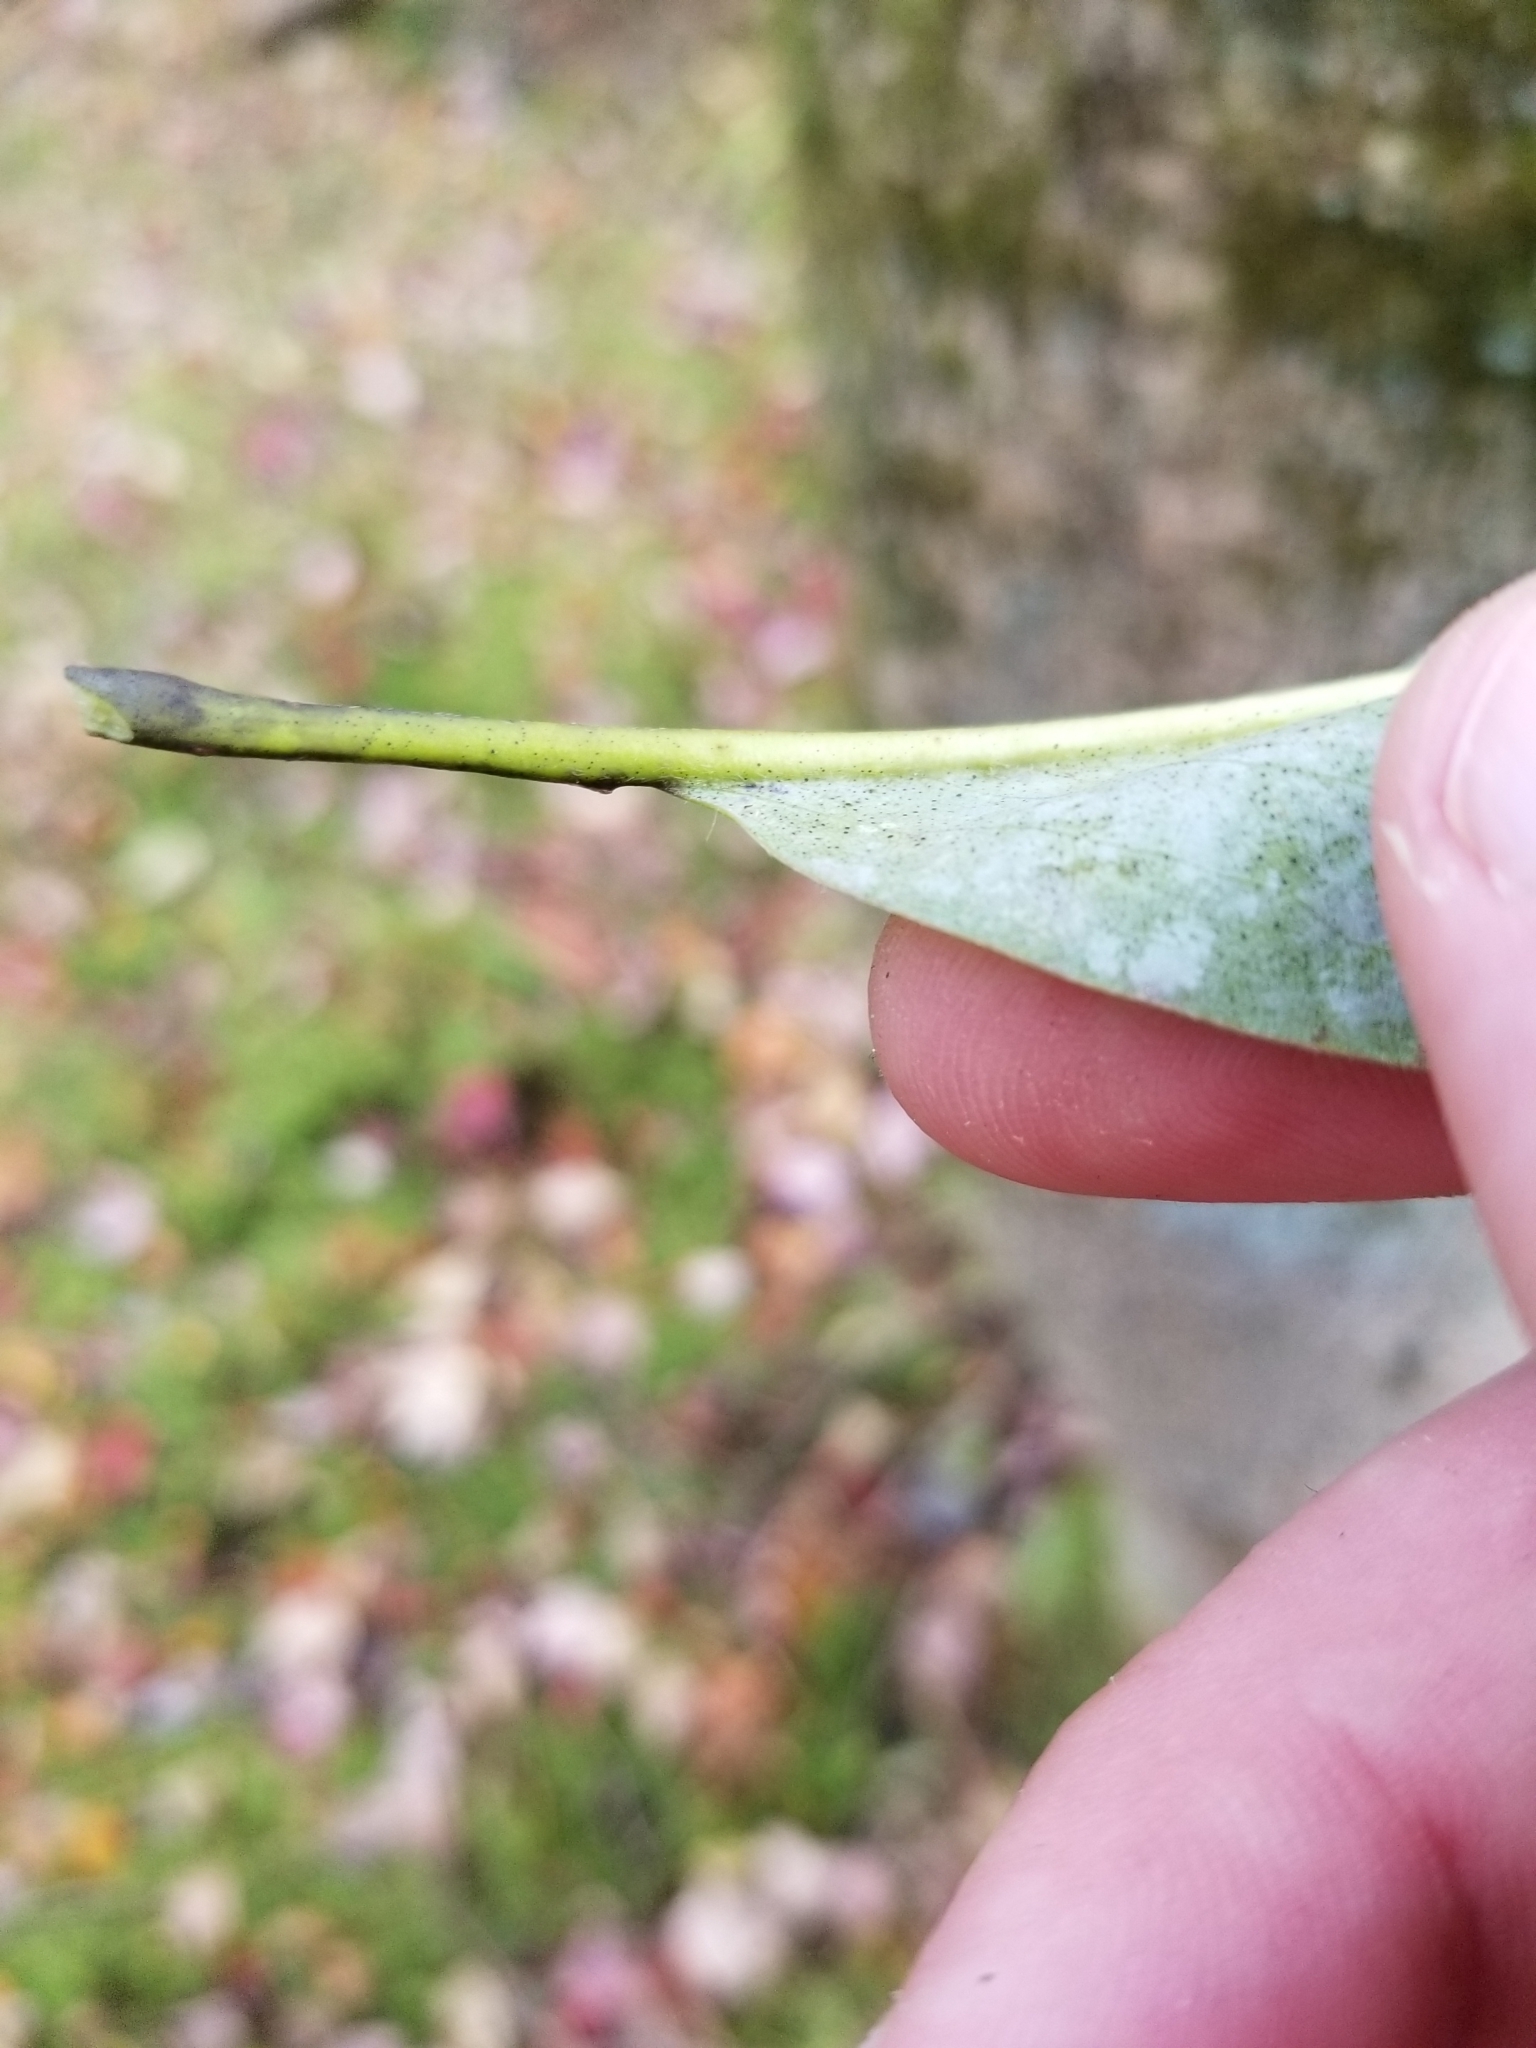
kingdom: Plantae
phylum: Tracheophyta
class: Magnoliopsida
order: Magnoliales
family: Magnoliaceae
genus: Magnolia
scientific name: Magnolia virginiana
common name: Swamp bay
